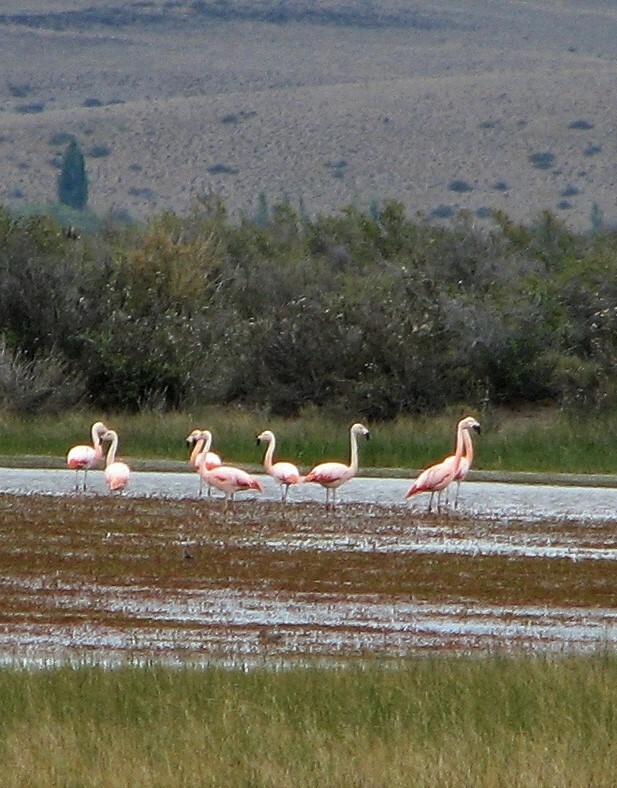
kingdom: Animalia
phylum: Chordata
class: Aves
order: Phoenicopteriformes
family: Phoenicopteridae
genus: Phoenicopterus
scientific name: Phoenicopterus chilensis
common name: Chilean flamingo
